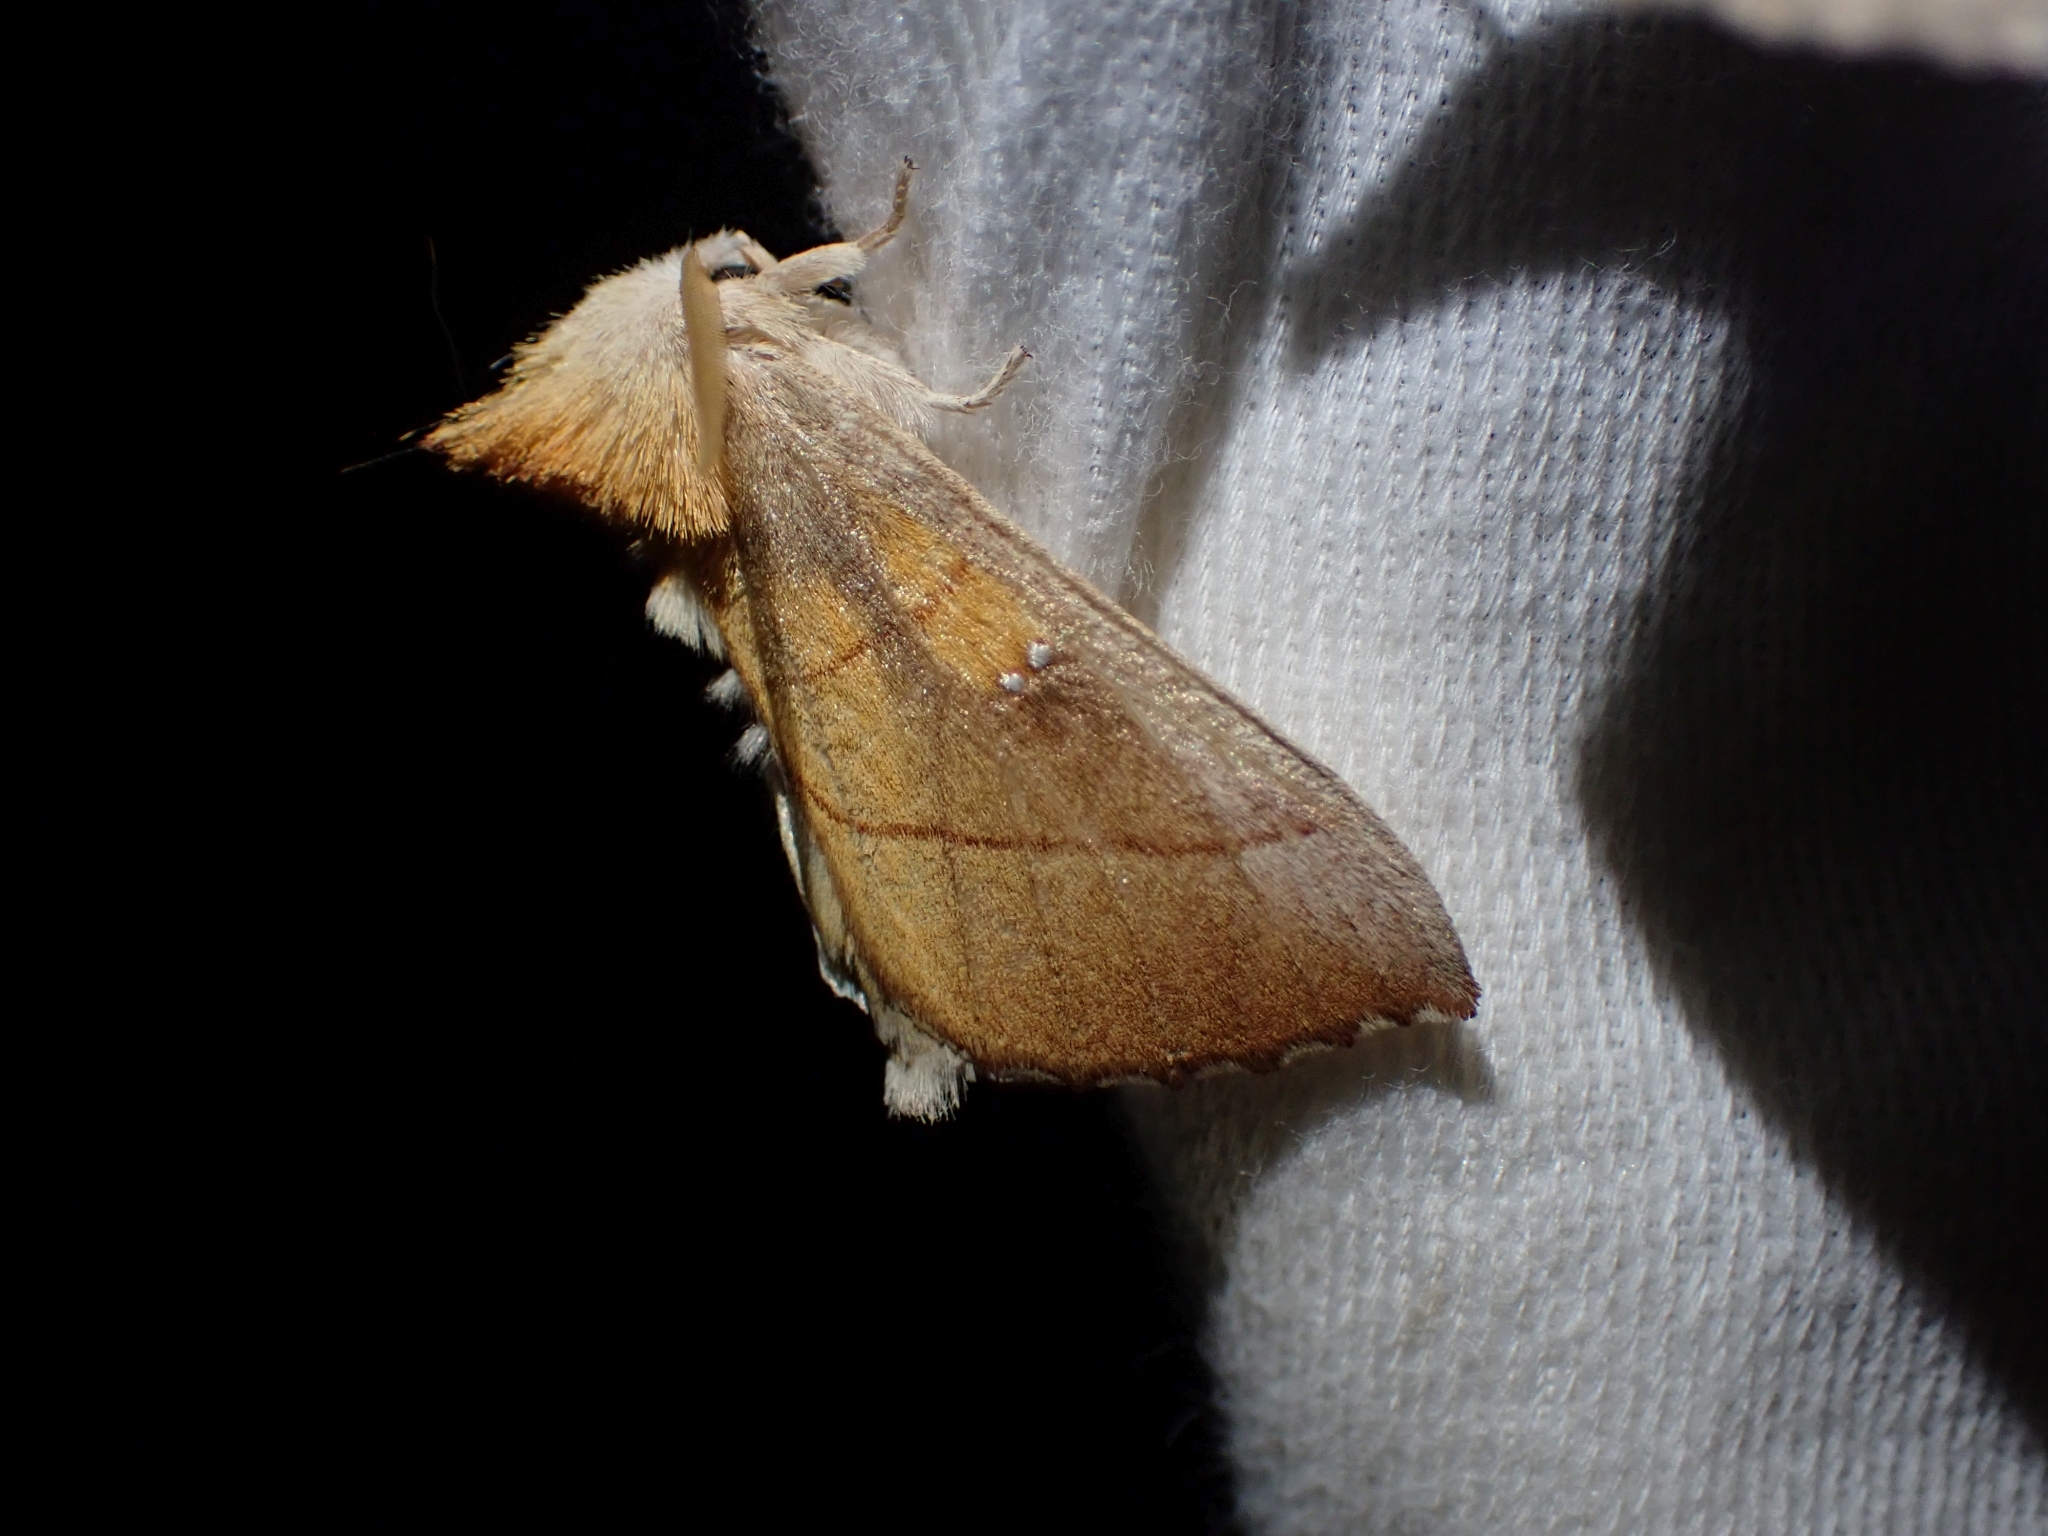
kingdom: Animalia
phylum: Arthropoda
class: Insecta
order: Lepidoptera
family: Notodontidae
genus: Nadata
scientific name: Nadata gibbosa
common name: White-dotted prominent
